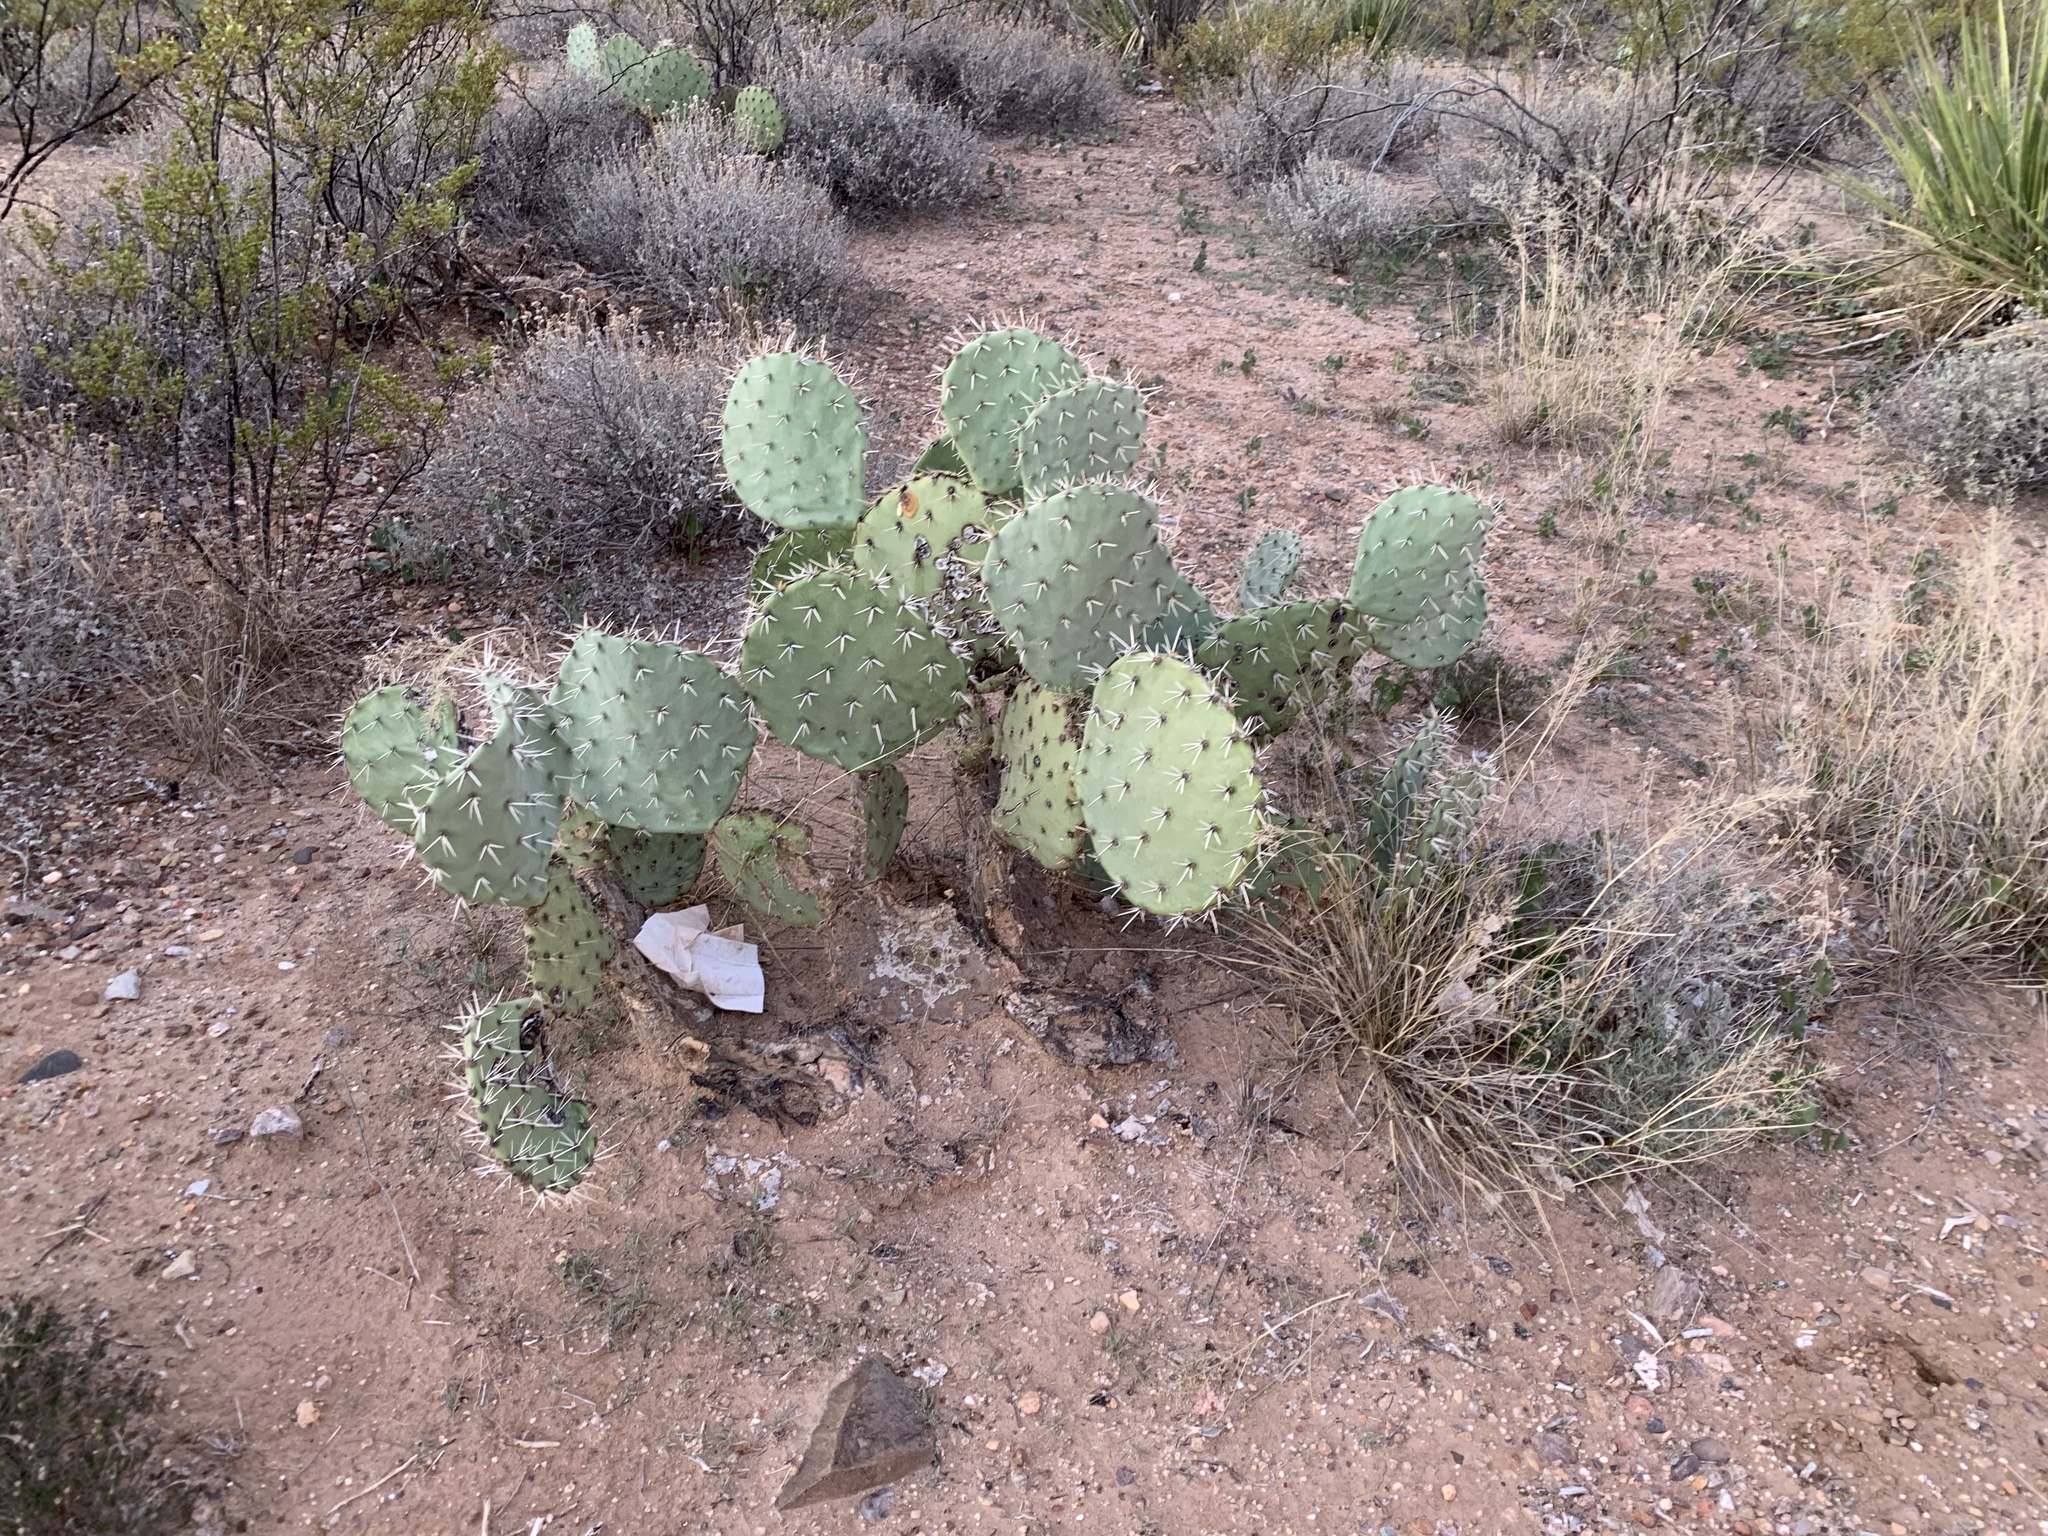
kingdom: Plantae
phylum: Tracheophyta
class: Magnoliopsida
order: Caryophyllales
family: Cactaceae
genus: Opuntia
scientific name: Opuntia engelmannii
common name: Cactus-apple
